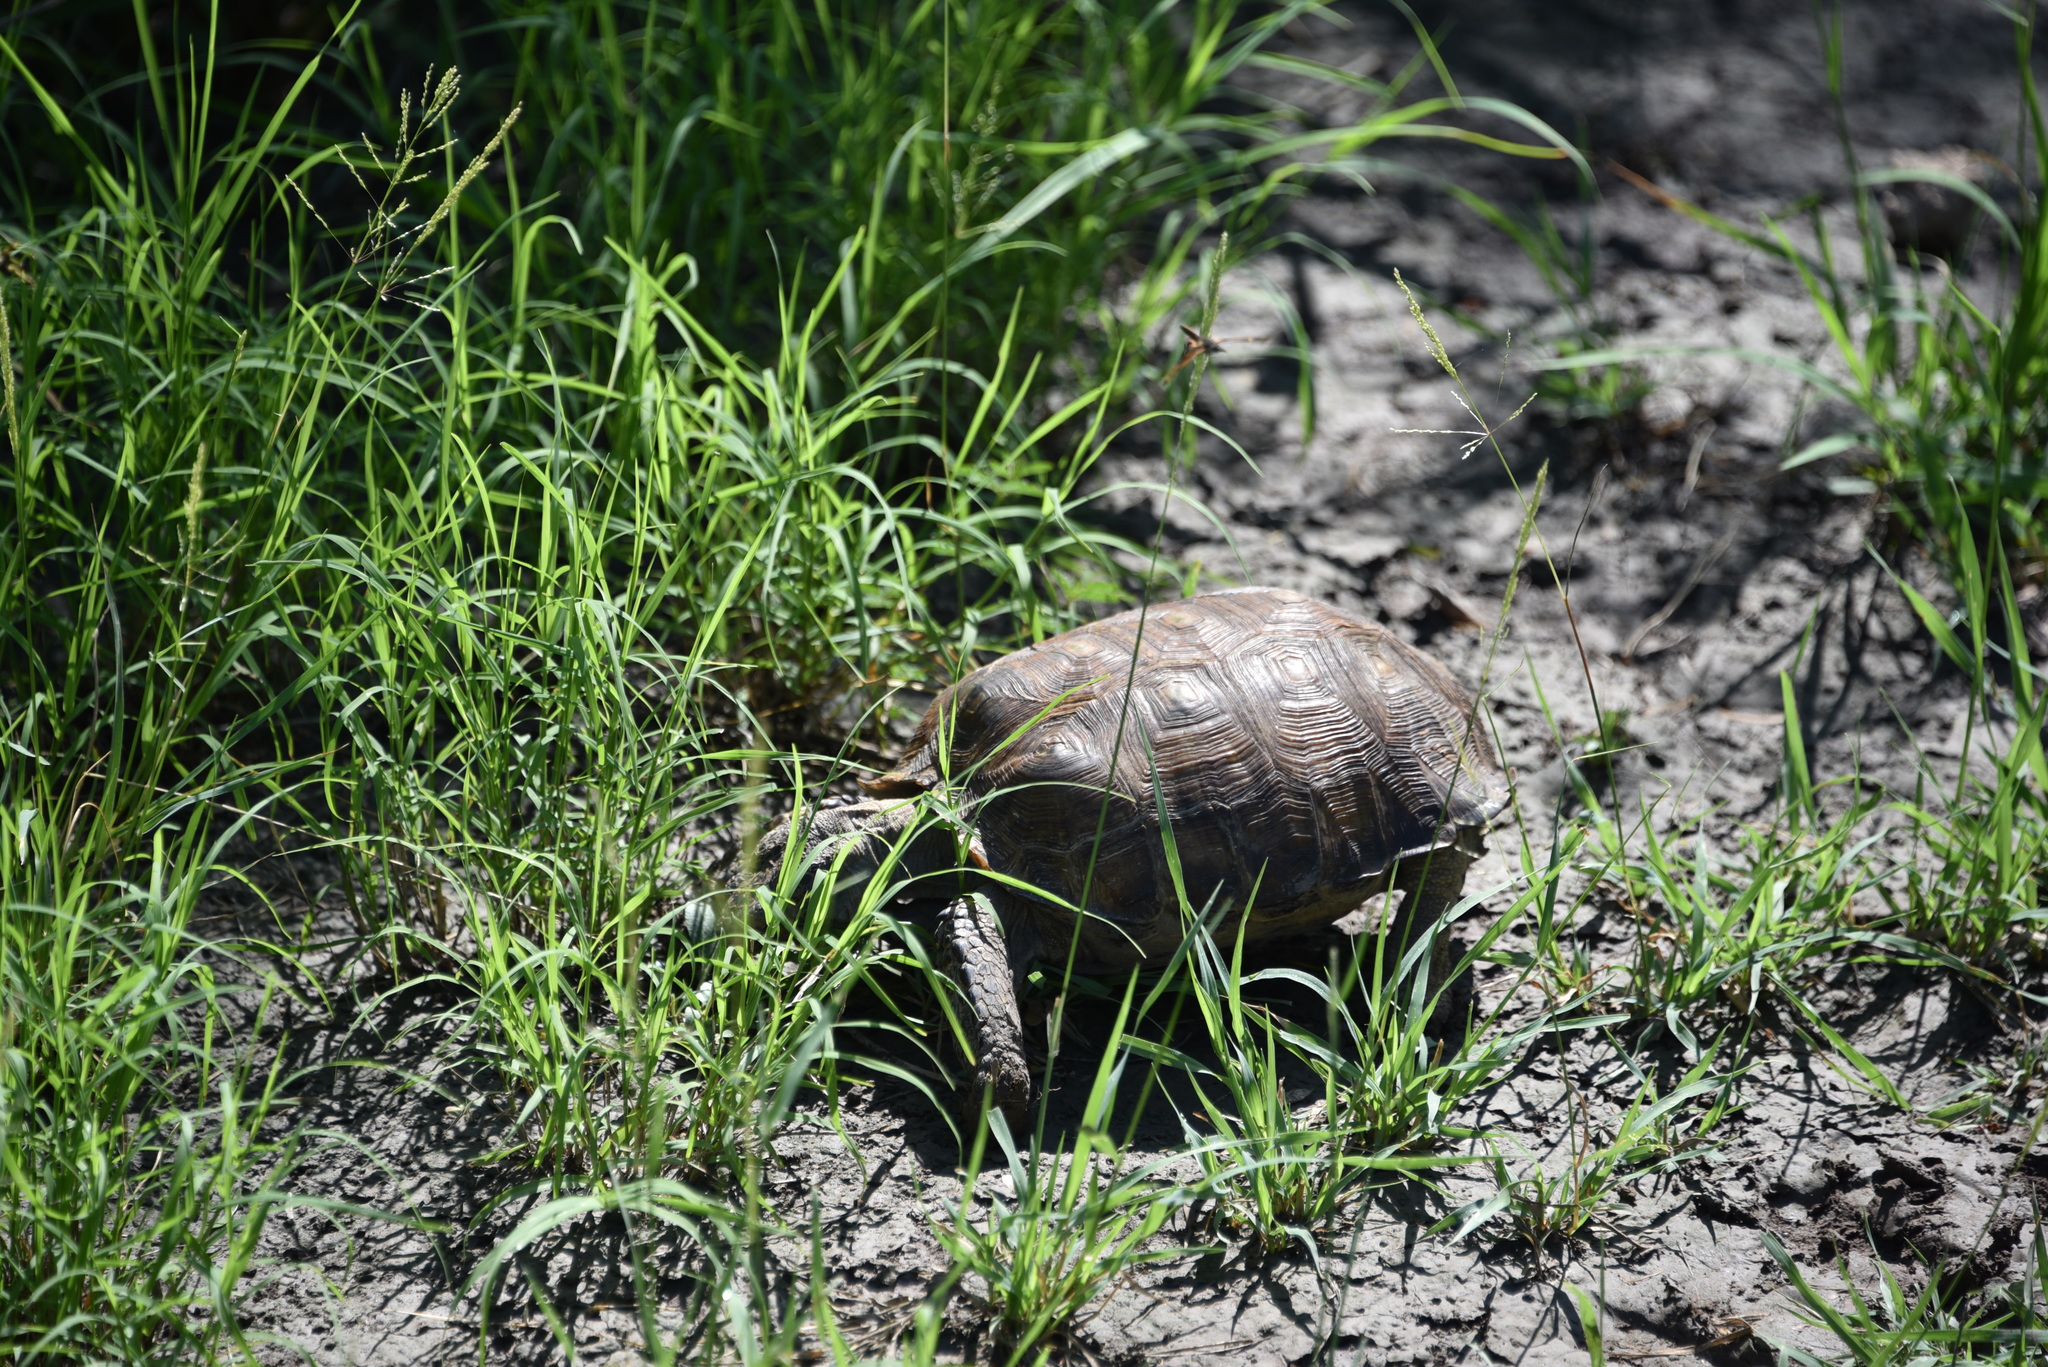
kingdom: Animalia
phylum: Chordata
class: Testudines
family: Testudinidae
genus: Gopherus
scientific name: Gopherus berlandieri
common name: Texas (gopher )tortoise
